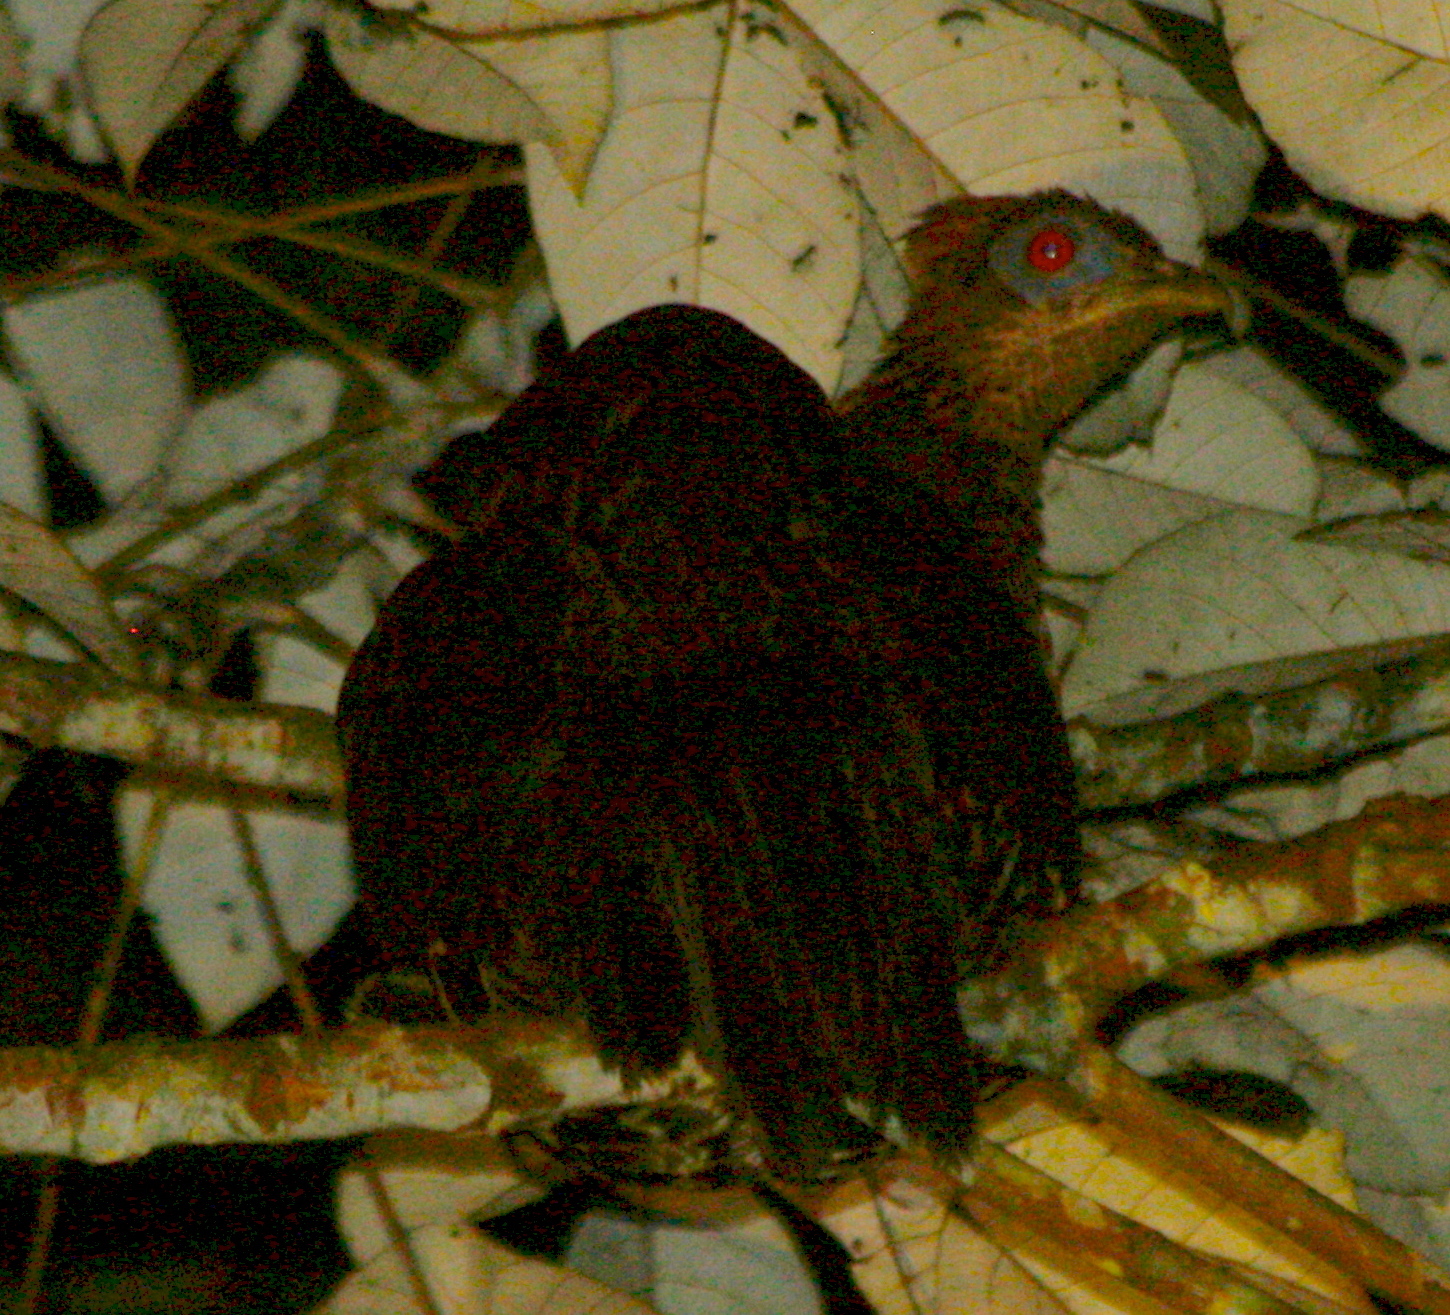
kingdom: Animalia
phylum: Chordata
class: Aves
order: Galliformes
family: Phasianidae
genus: Lophura
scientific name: Lophura ignita
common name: Crested fireback
